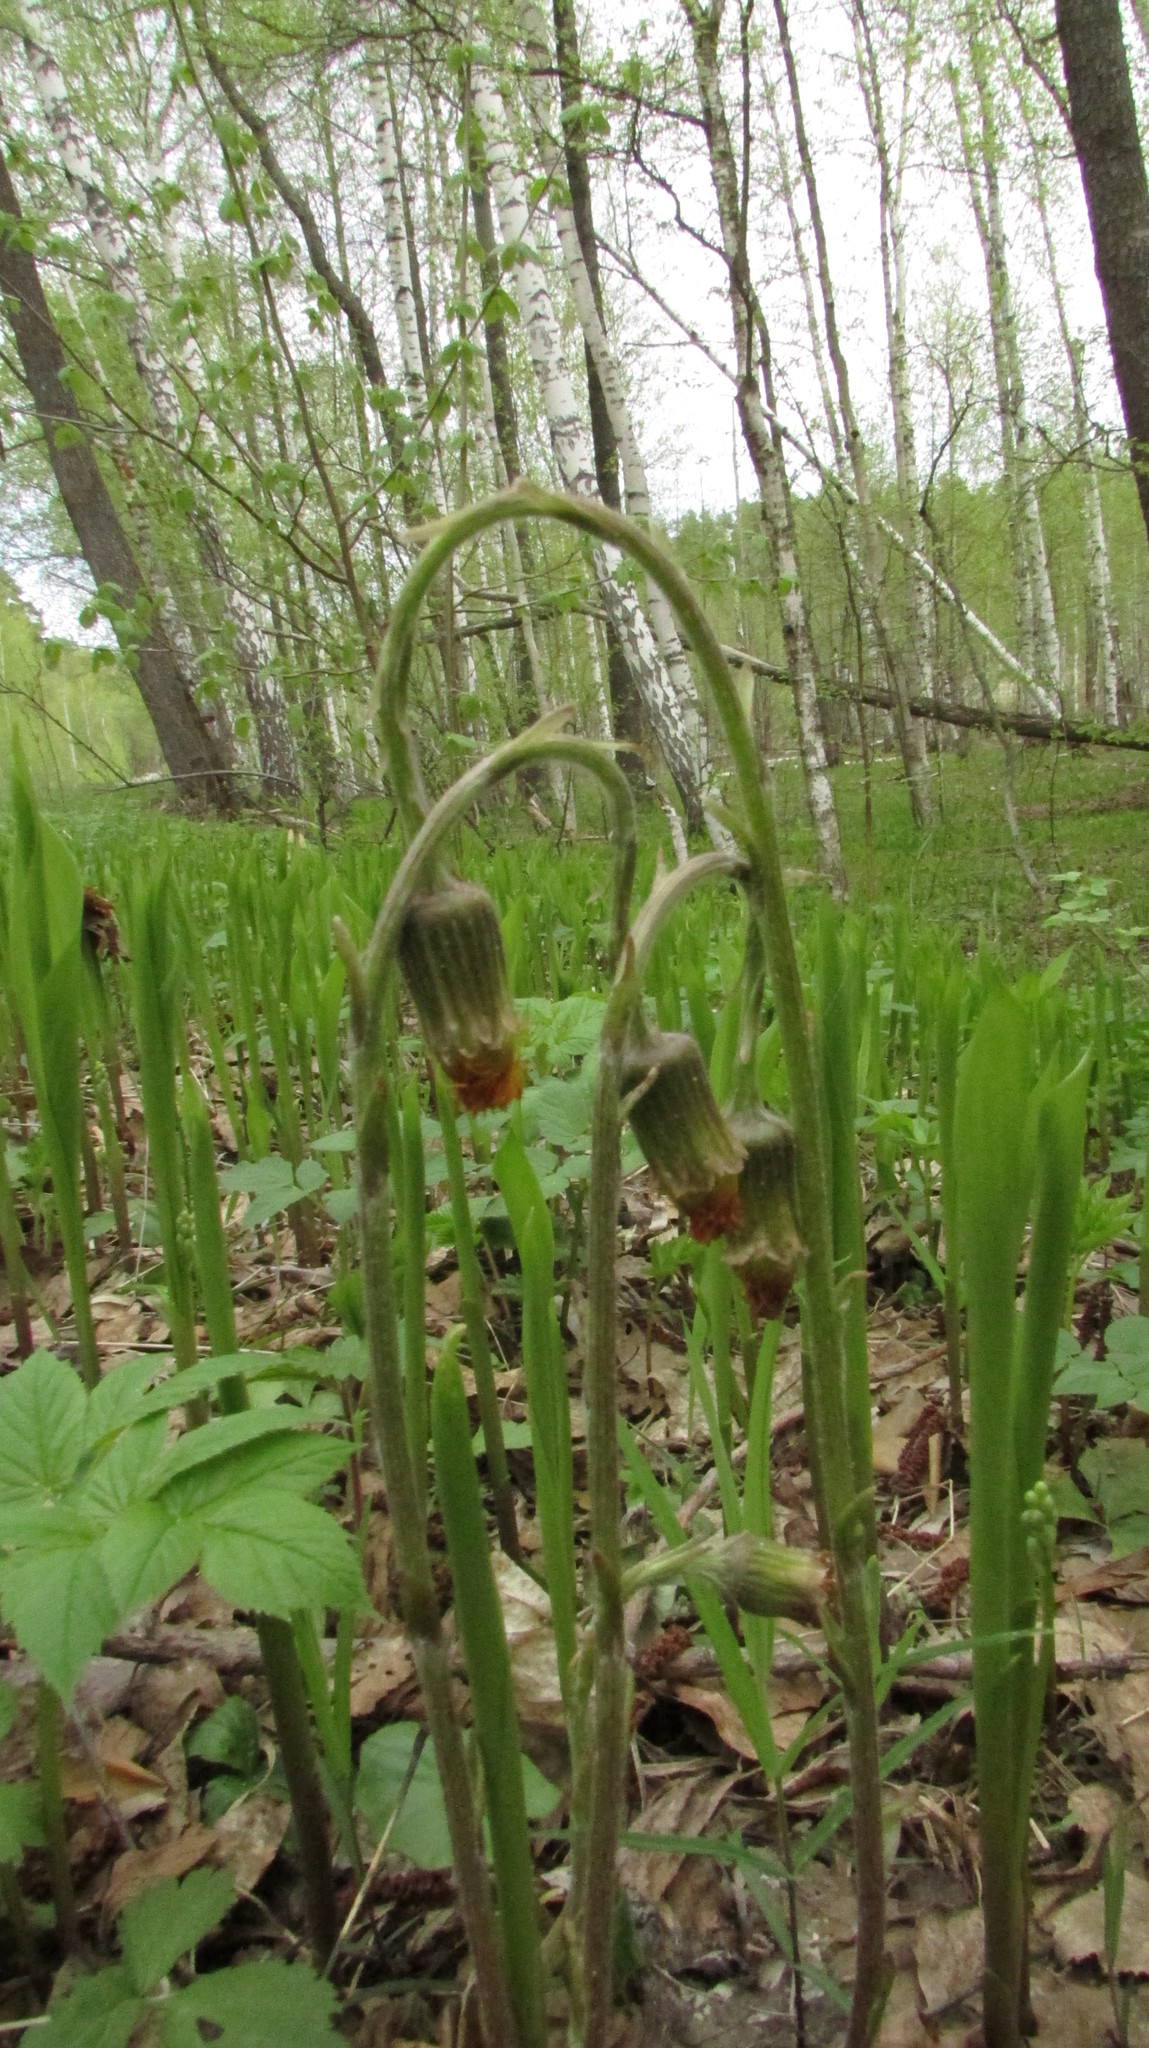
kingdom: Plantae
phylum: Tracheophyta
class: Magnoliopsida
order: Asterales
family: Asteraceae
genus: Tussilago
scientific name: Tussilago farfara
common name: Coltsfoot
